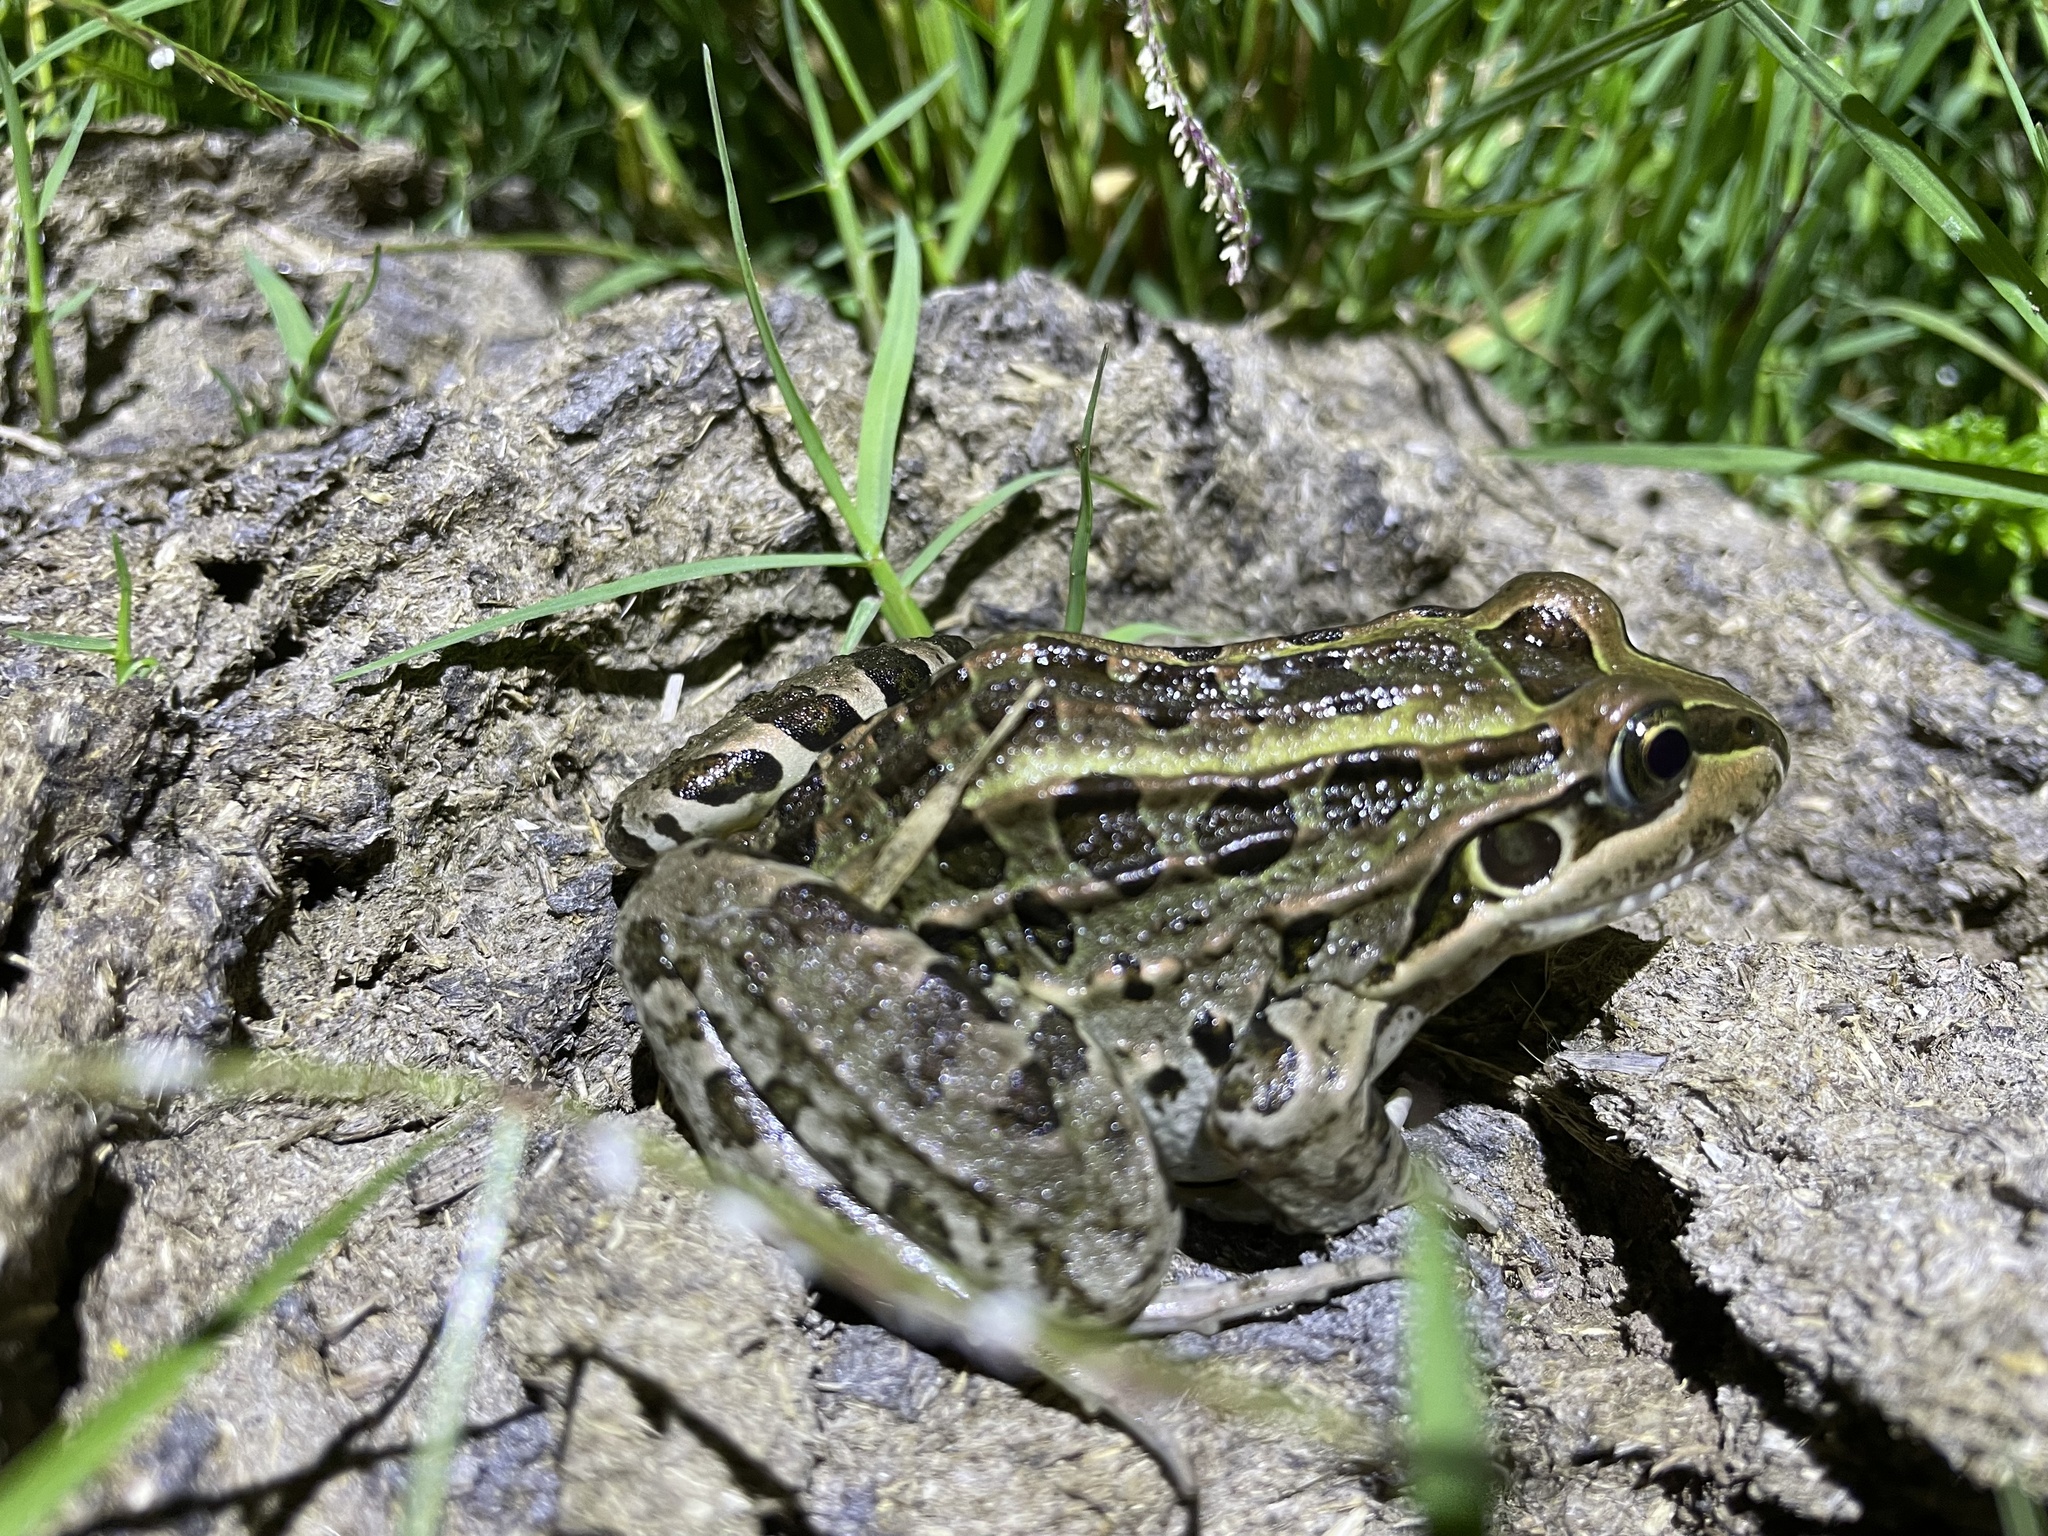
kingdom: Animalia
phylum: Chordata
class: Amphibia
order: Anura
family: Leptodactylidae
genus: Leptodactylus
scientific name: Leptodactylus luctator
